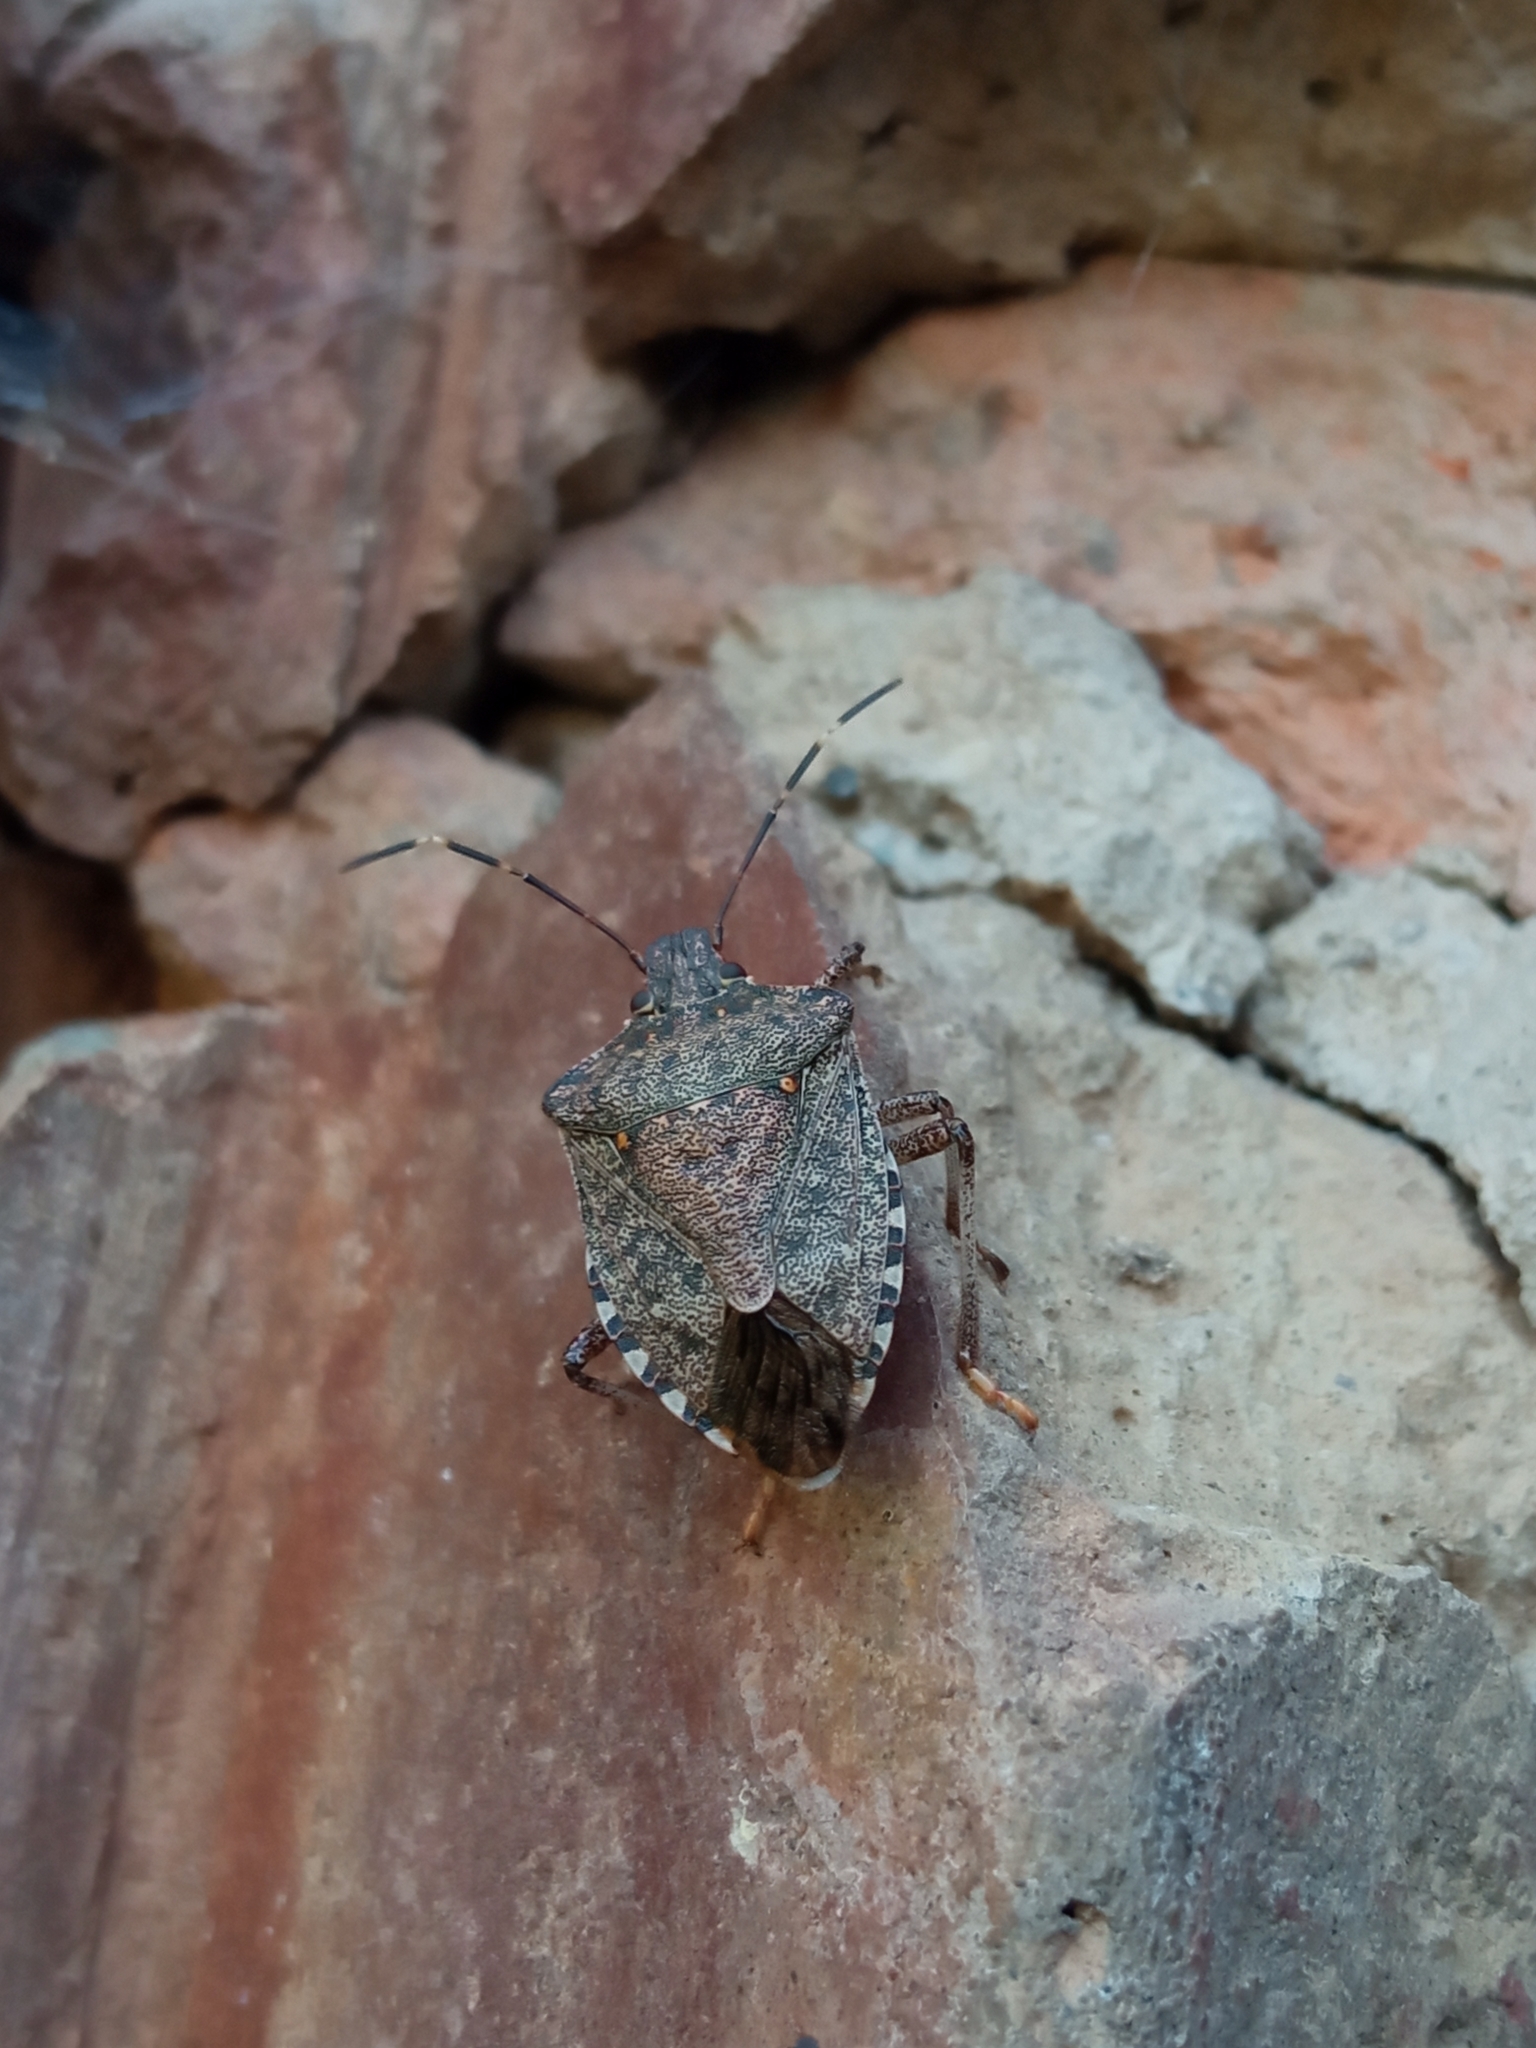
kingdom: Animalia
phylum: Arthropoda
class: Insecta
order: Hemiptera
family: Pentatomidae
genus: Halyomorpha
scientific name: Halyomorpha halys
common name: Brown marmorated stink bug
